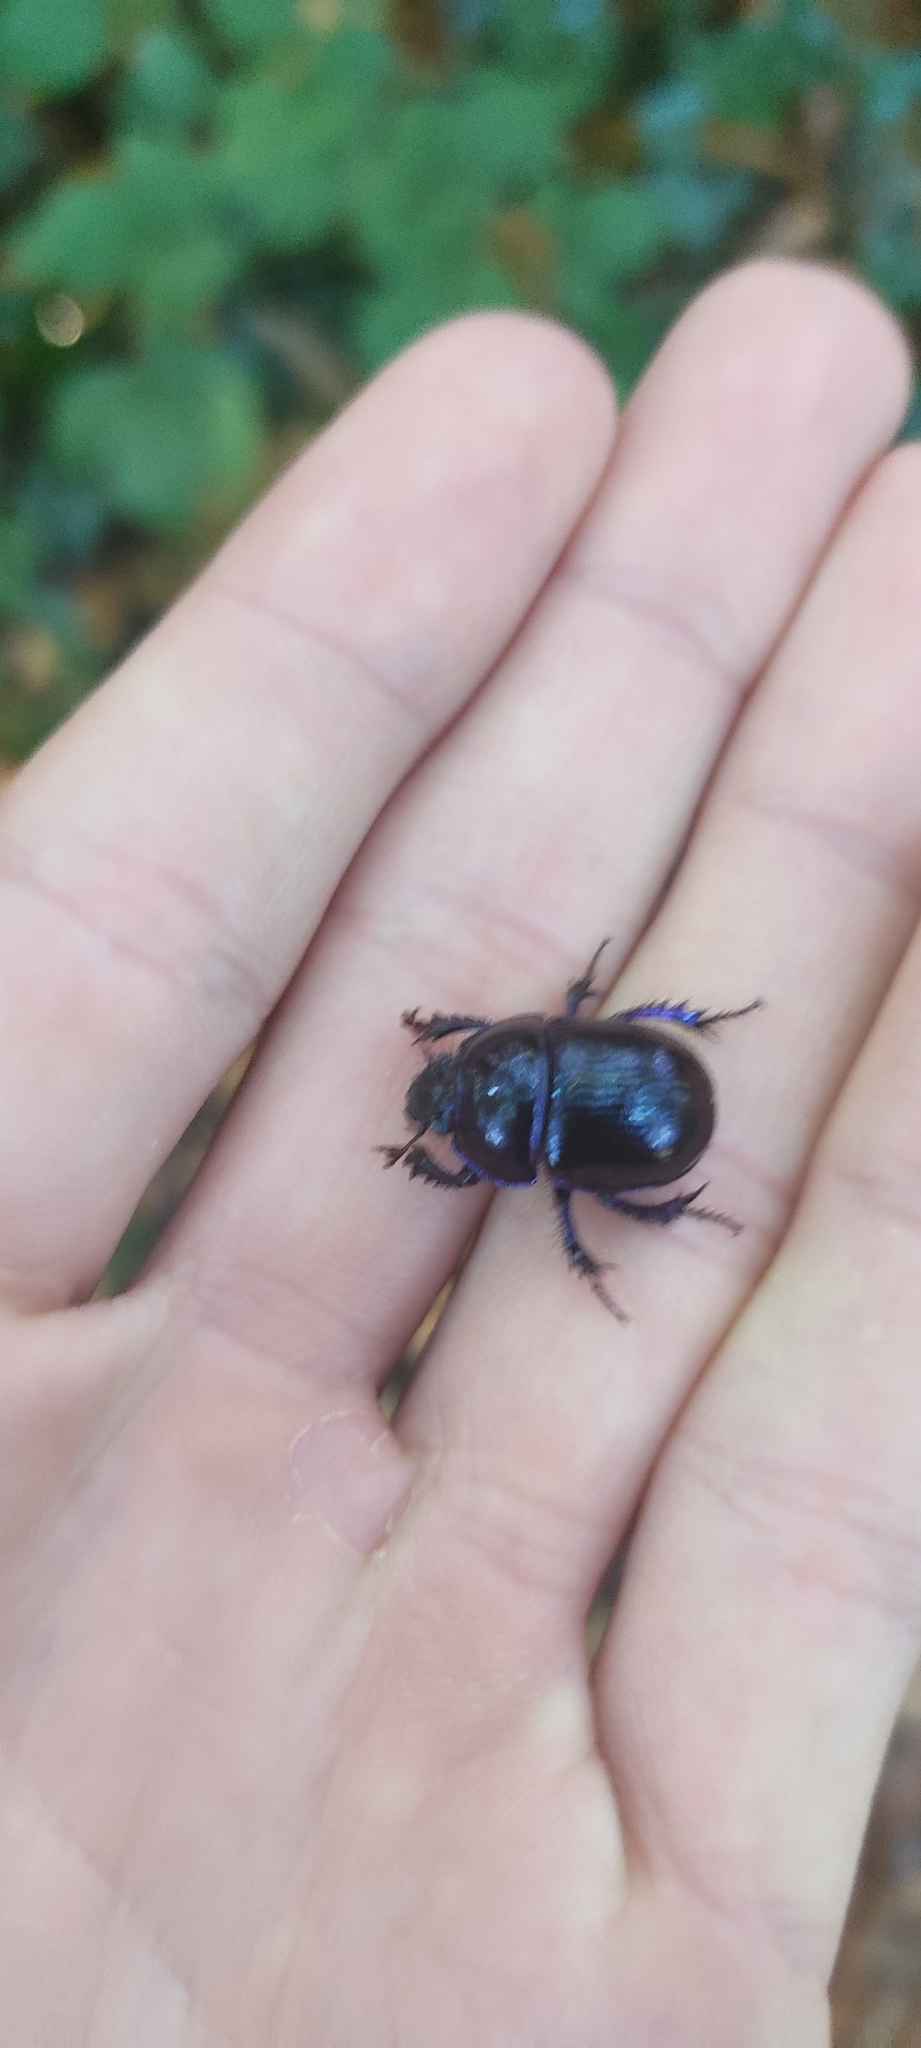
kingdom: Animalia
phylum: Arthropoda
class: Insecta
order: Coleoptera
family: Geotrupidae
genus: Anoplotrupes
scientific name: Anoplotrupes stercorosus
